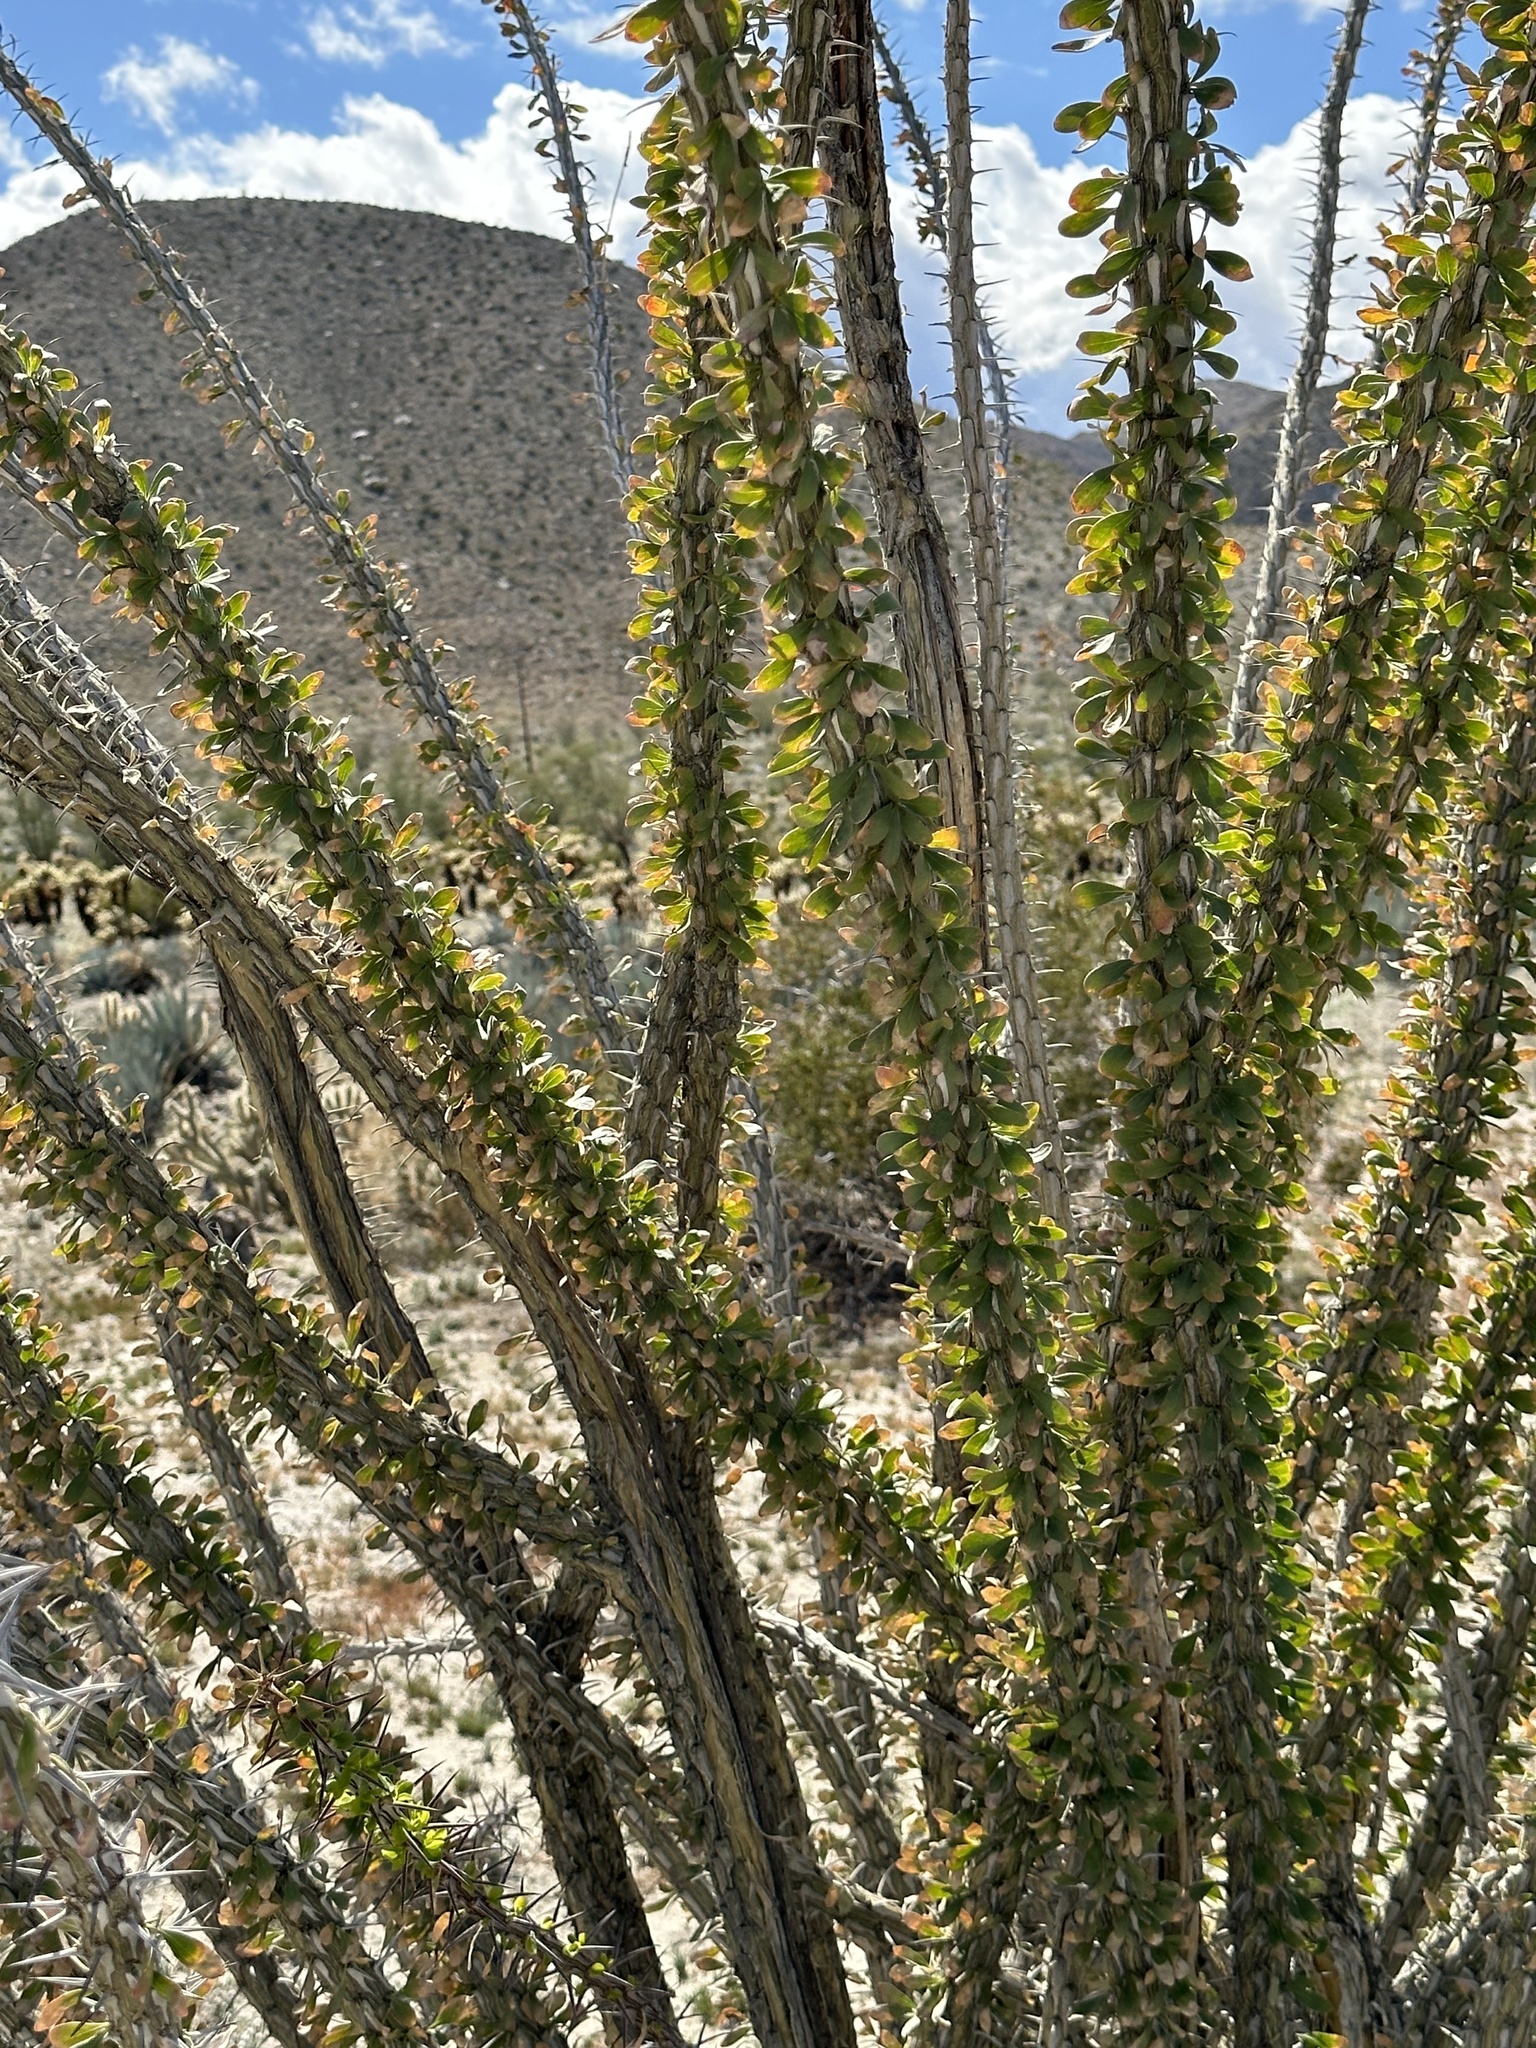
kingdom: Plantae
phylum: Tracheophyta
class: Magnoliopsida
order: Ericales
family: Fouquieriaceae
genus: Fouquieria
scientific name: Fouquieria splendens
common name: Vine-cactus
